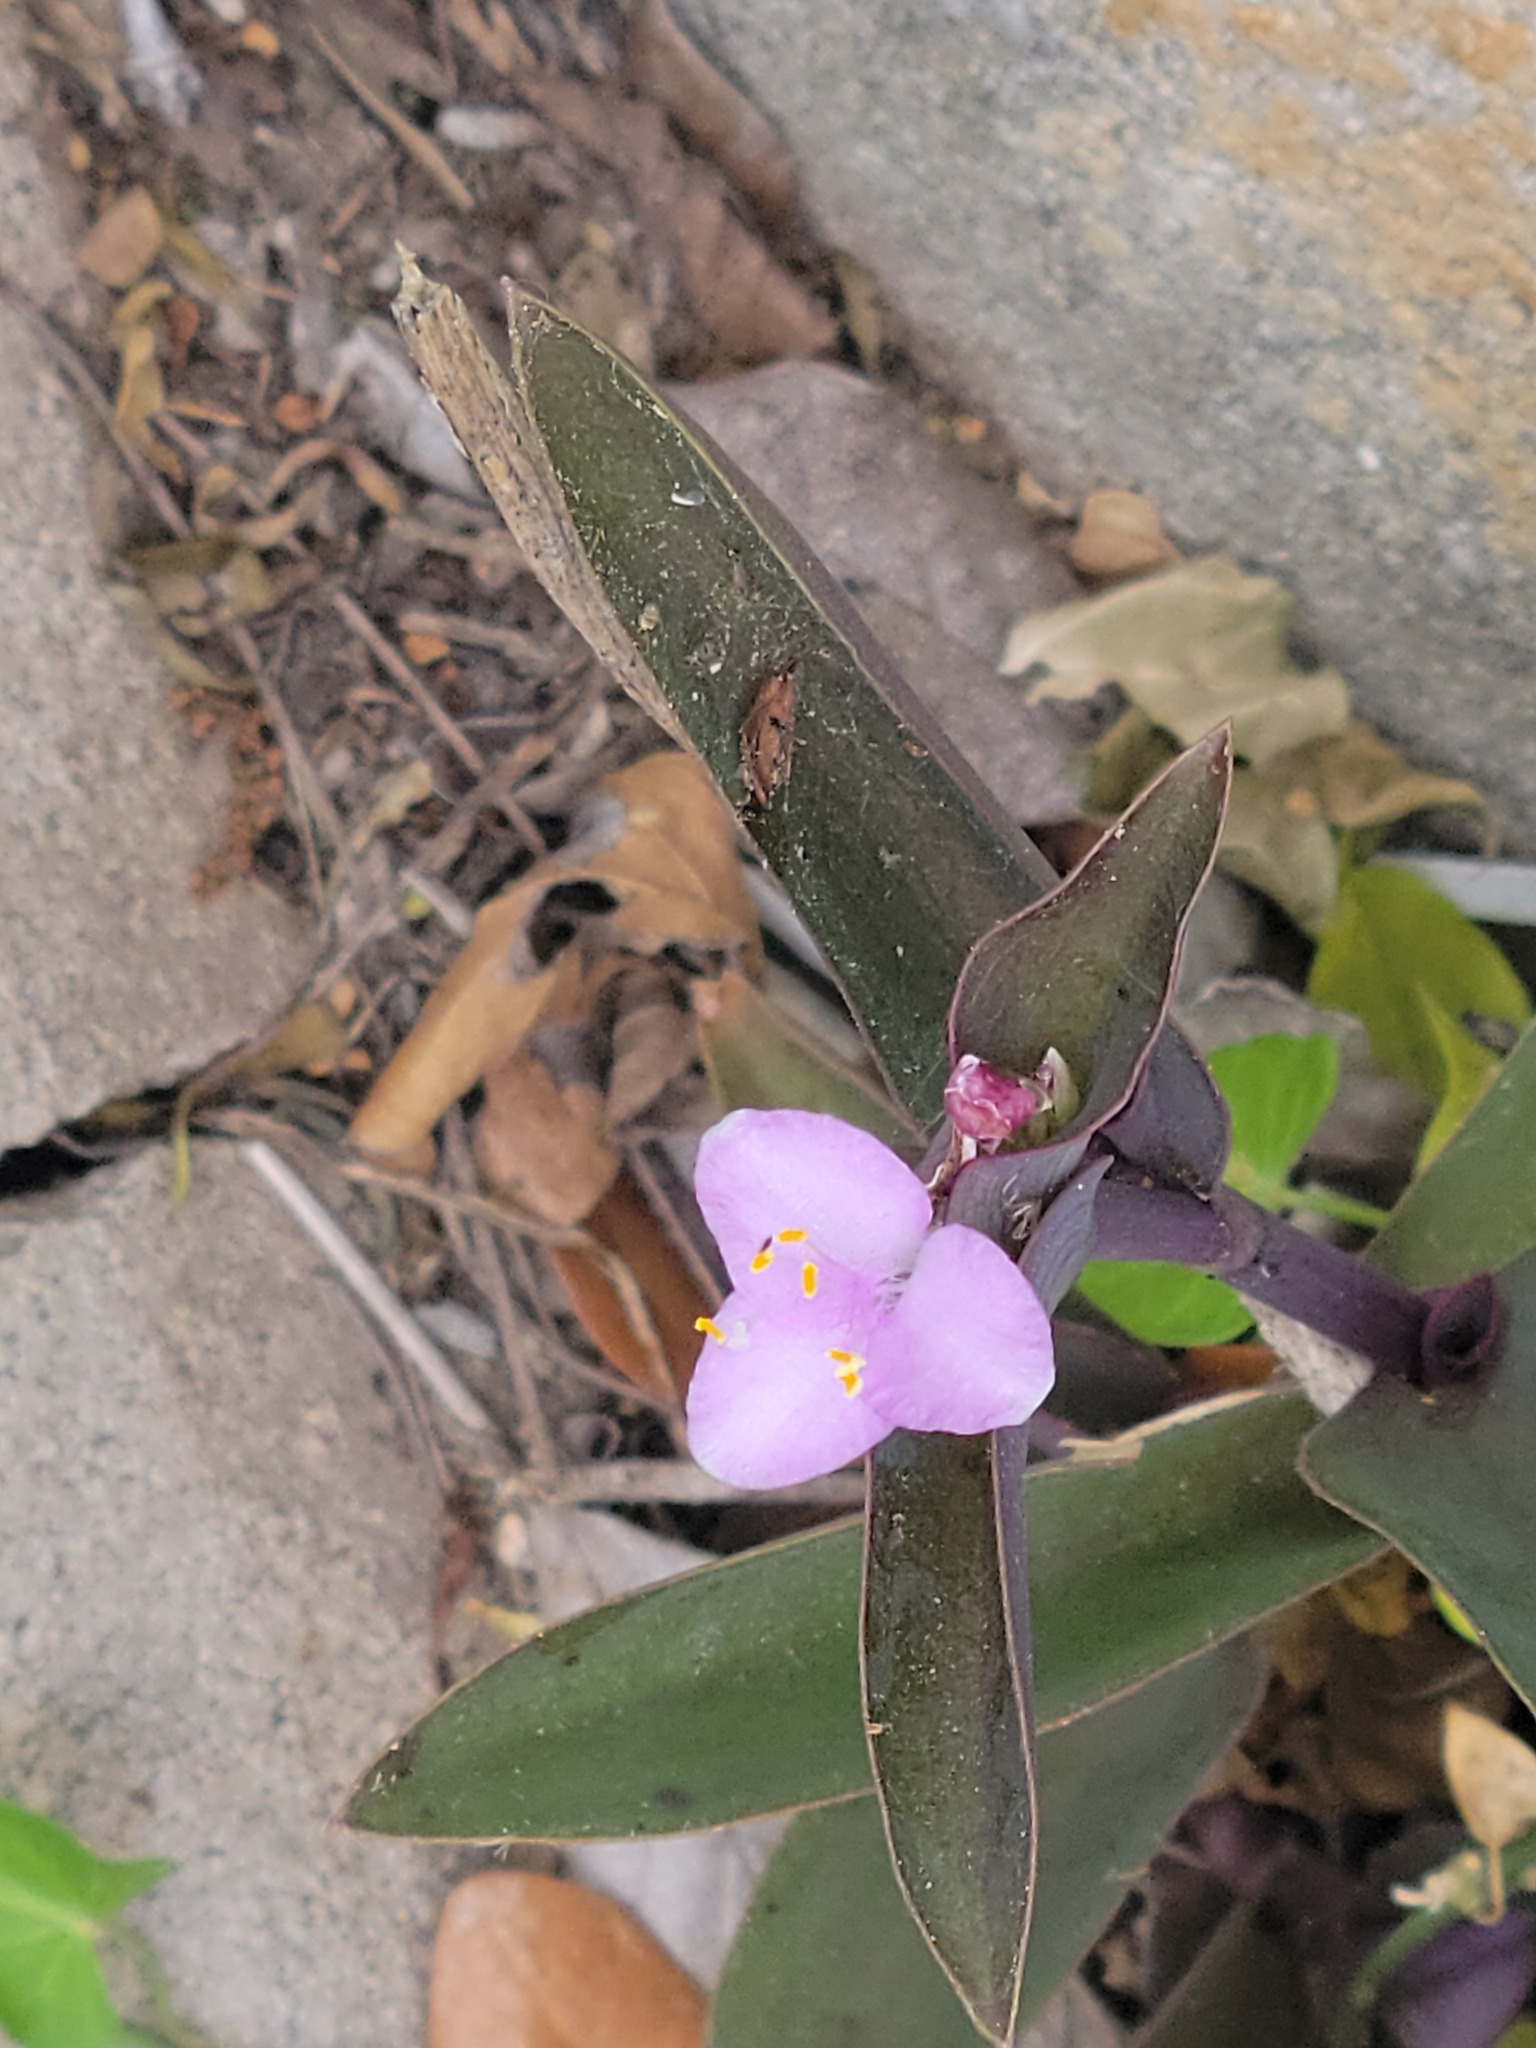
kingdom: Plantae
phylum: Tracheophyta
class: Liliopsida
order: Commelinales
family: Commelinaceae
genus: Tradescantia
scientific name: Tradescantia pallida
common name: Purpleheart
